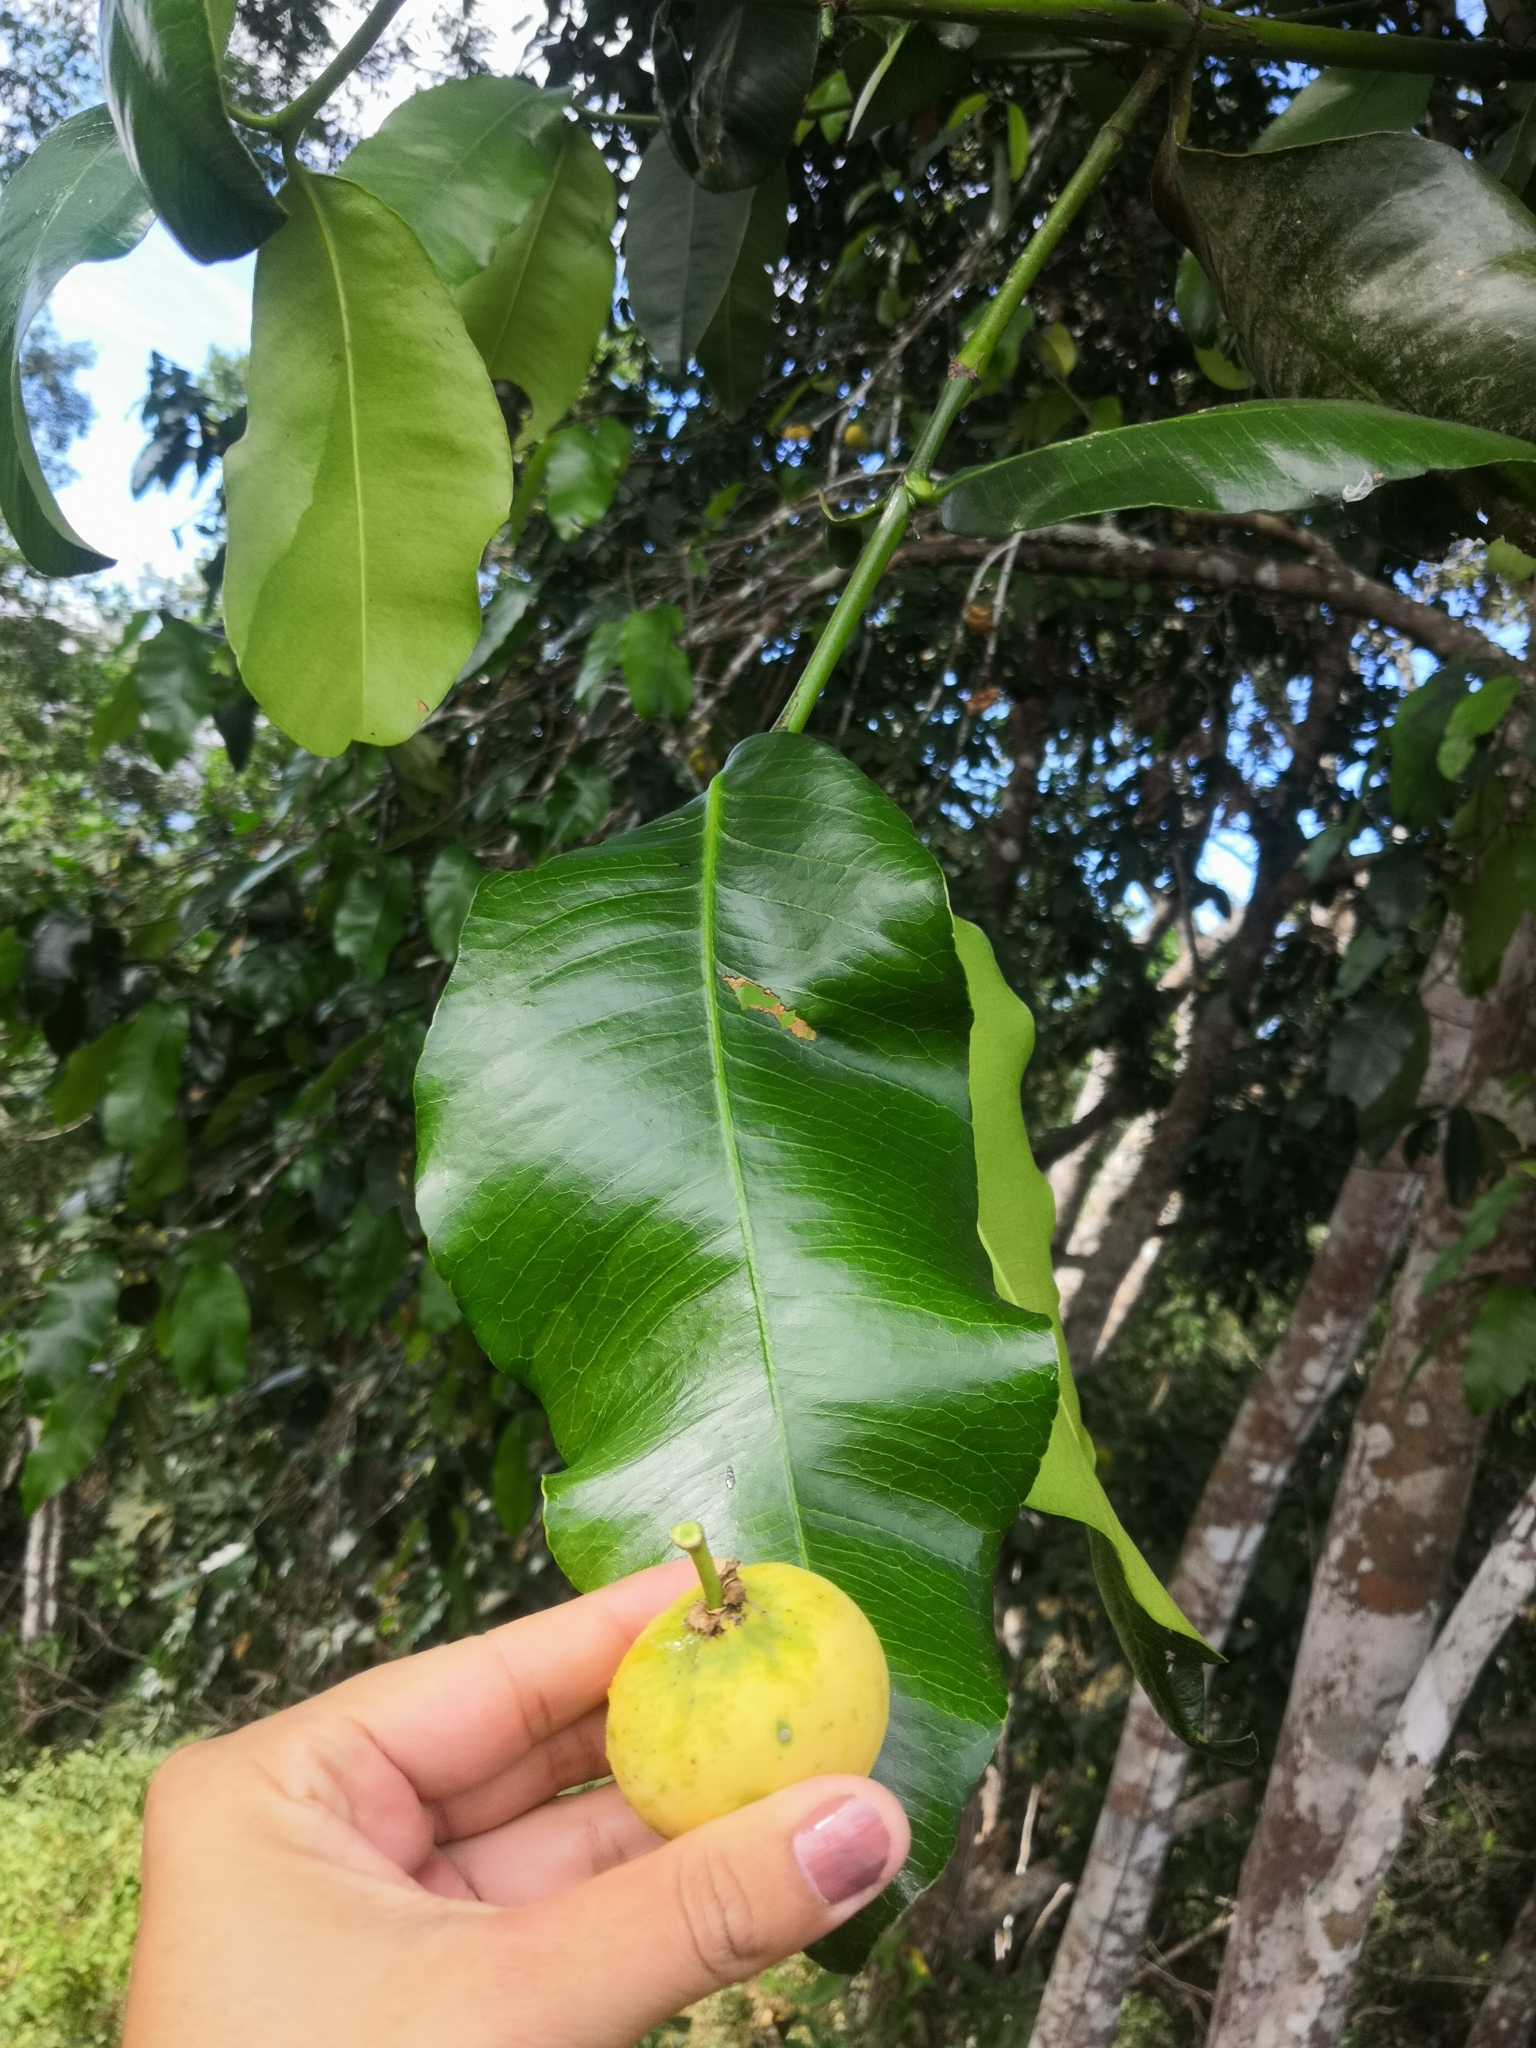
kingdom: Plantae
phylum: Tracheophyta
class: Magnoliopsida
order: Malpighiales
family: Clusiaceae
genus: Garcinia
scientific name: Garcinia intermedia
